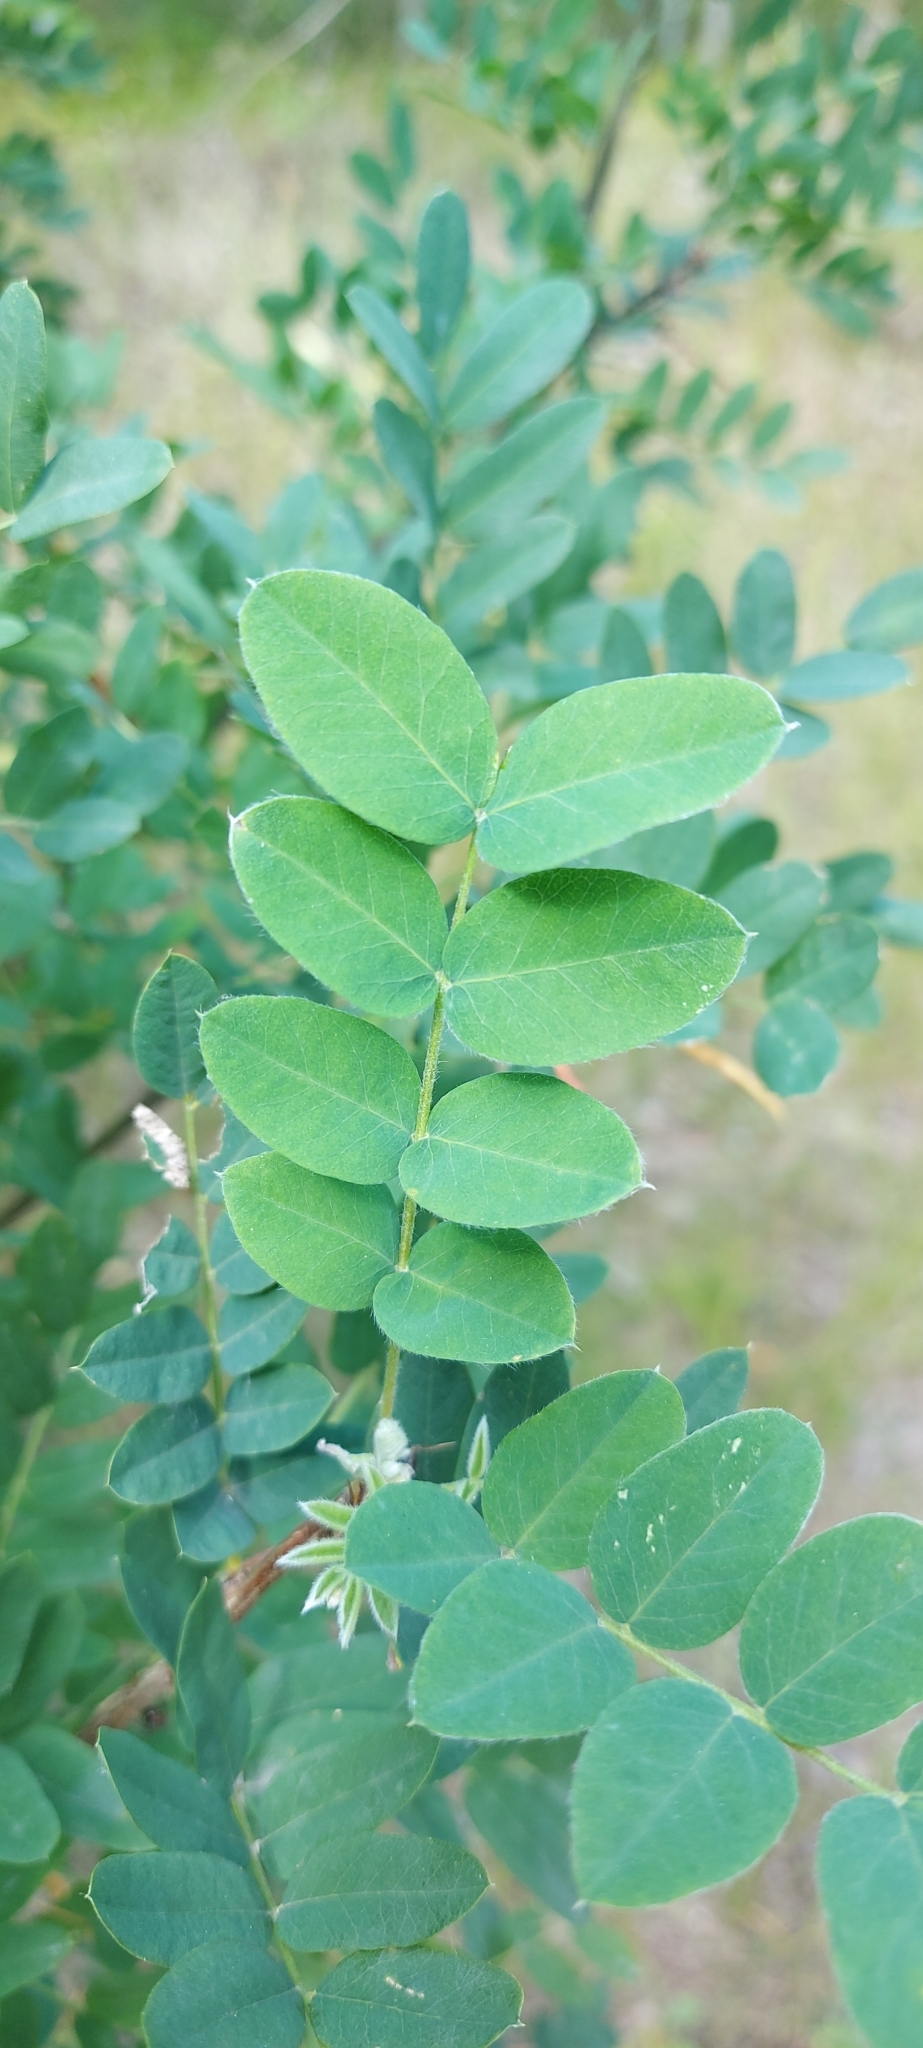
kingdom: Plantae
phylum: Tracheophyta
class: Magnoliopsida
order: Fabales
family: Fabaceae
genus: Caragana
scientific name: Caragana arborescens
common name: Siberian peashrub
